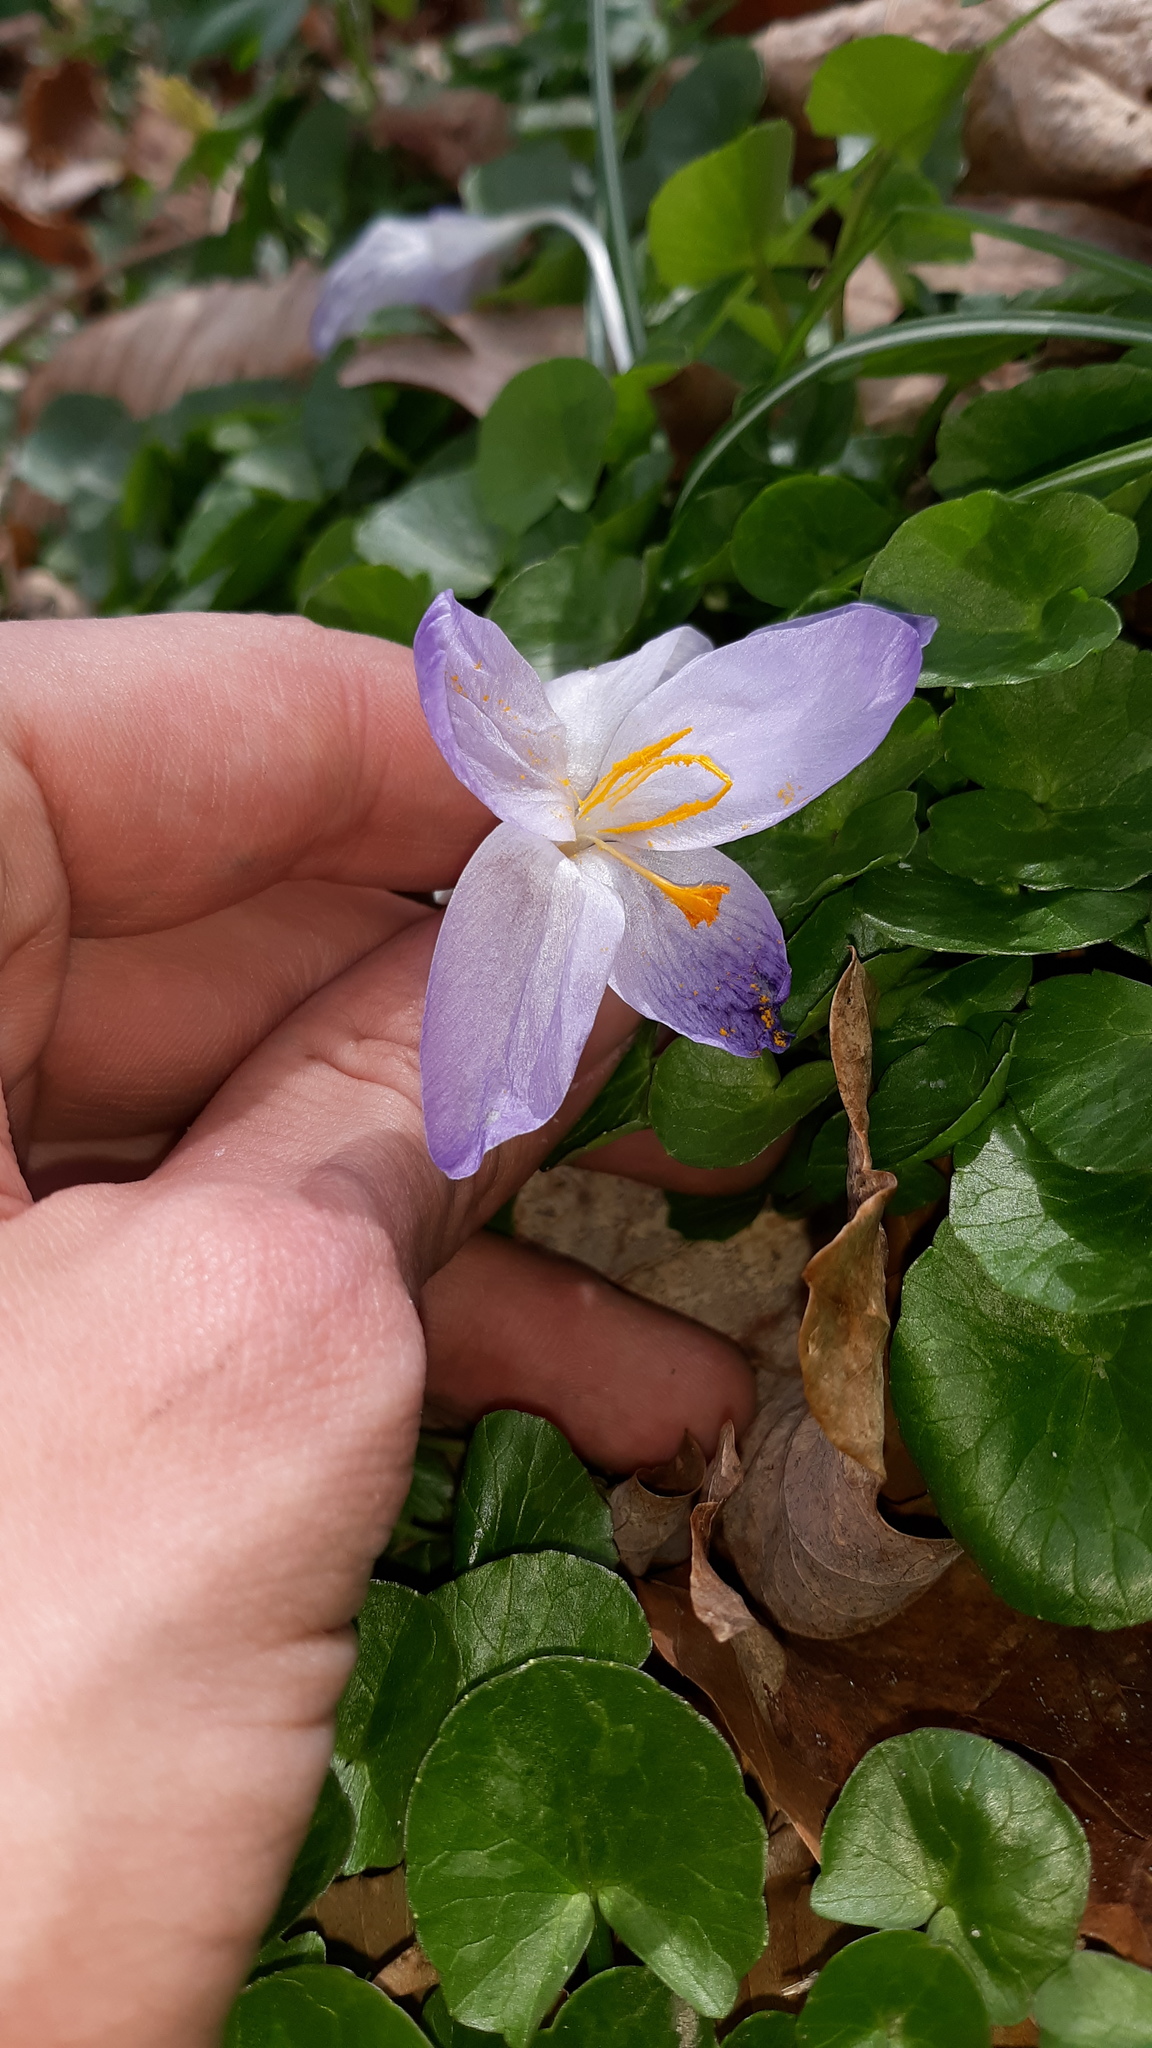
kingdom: Plantae
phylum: Tracheophyta
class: Liliopsida
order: Asparagales
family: Iridaceae
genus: Crocus
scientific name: Crocus tommasinianus
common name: Early crocus
